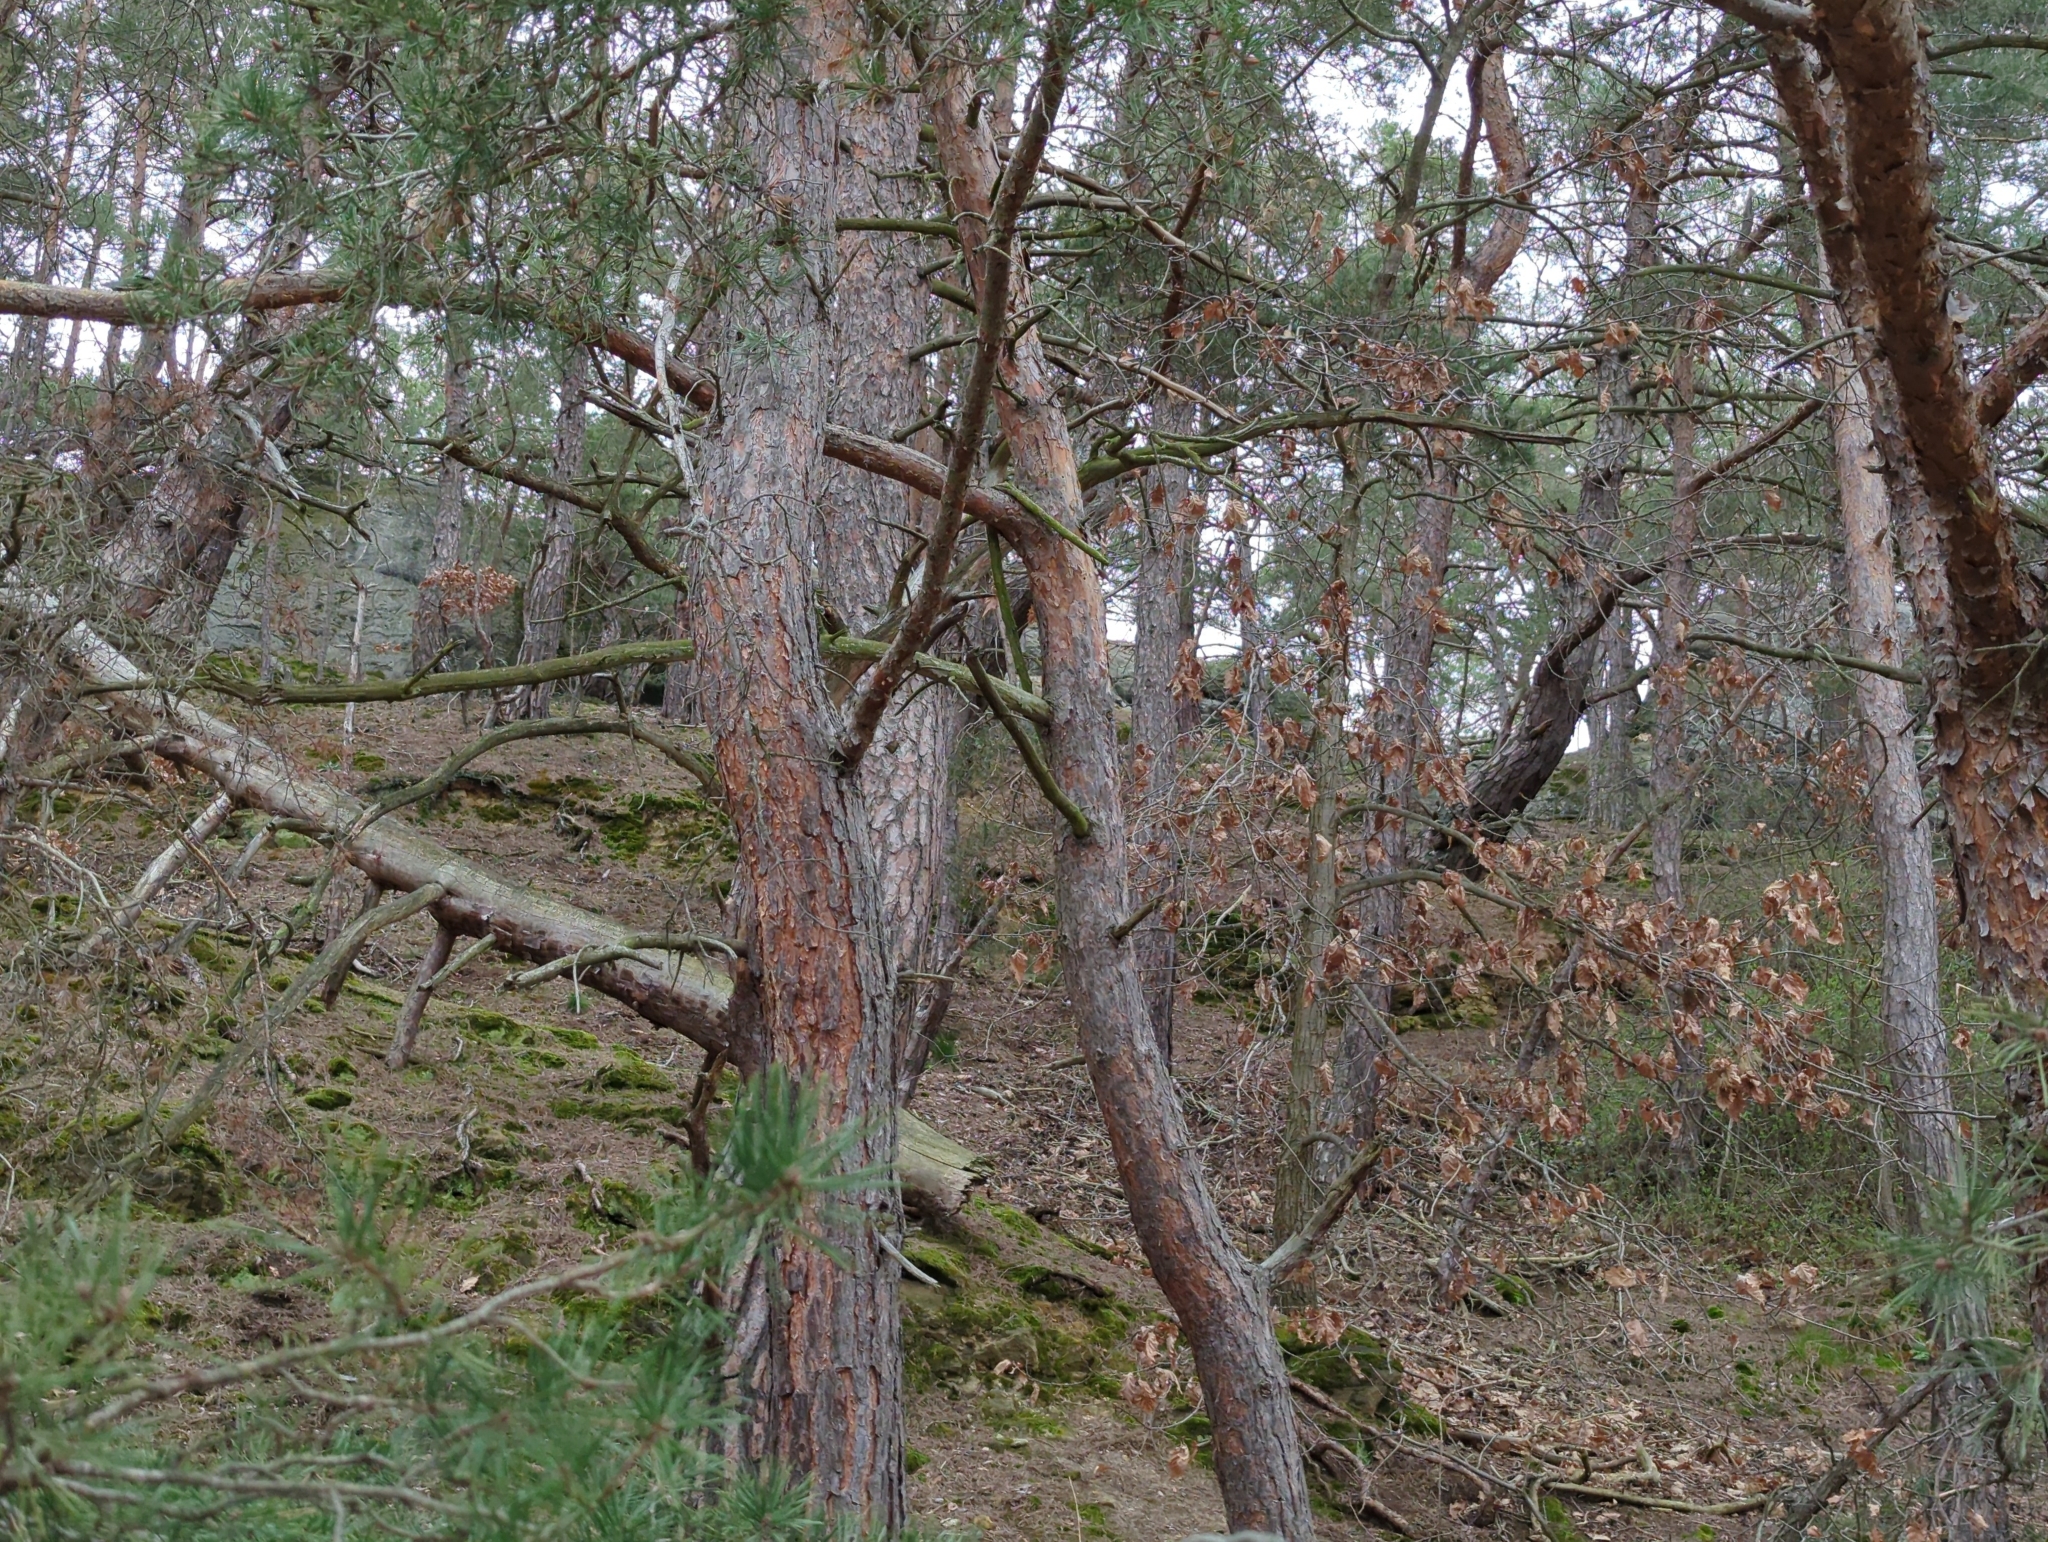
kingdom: Plantae
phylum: Tracheophyta
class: Pinopsida
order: Pinales
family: Pinaceae
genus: Pinus
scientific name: Pinus sylvestris
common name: Scots pine
